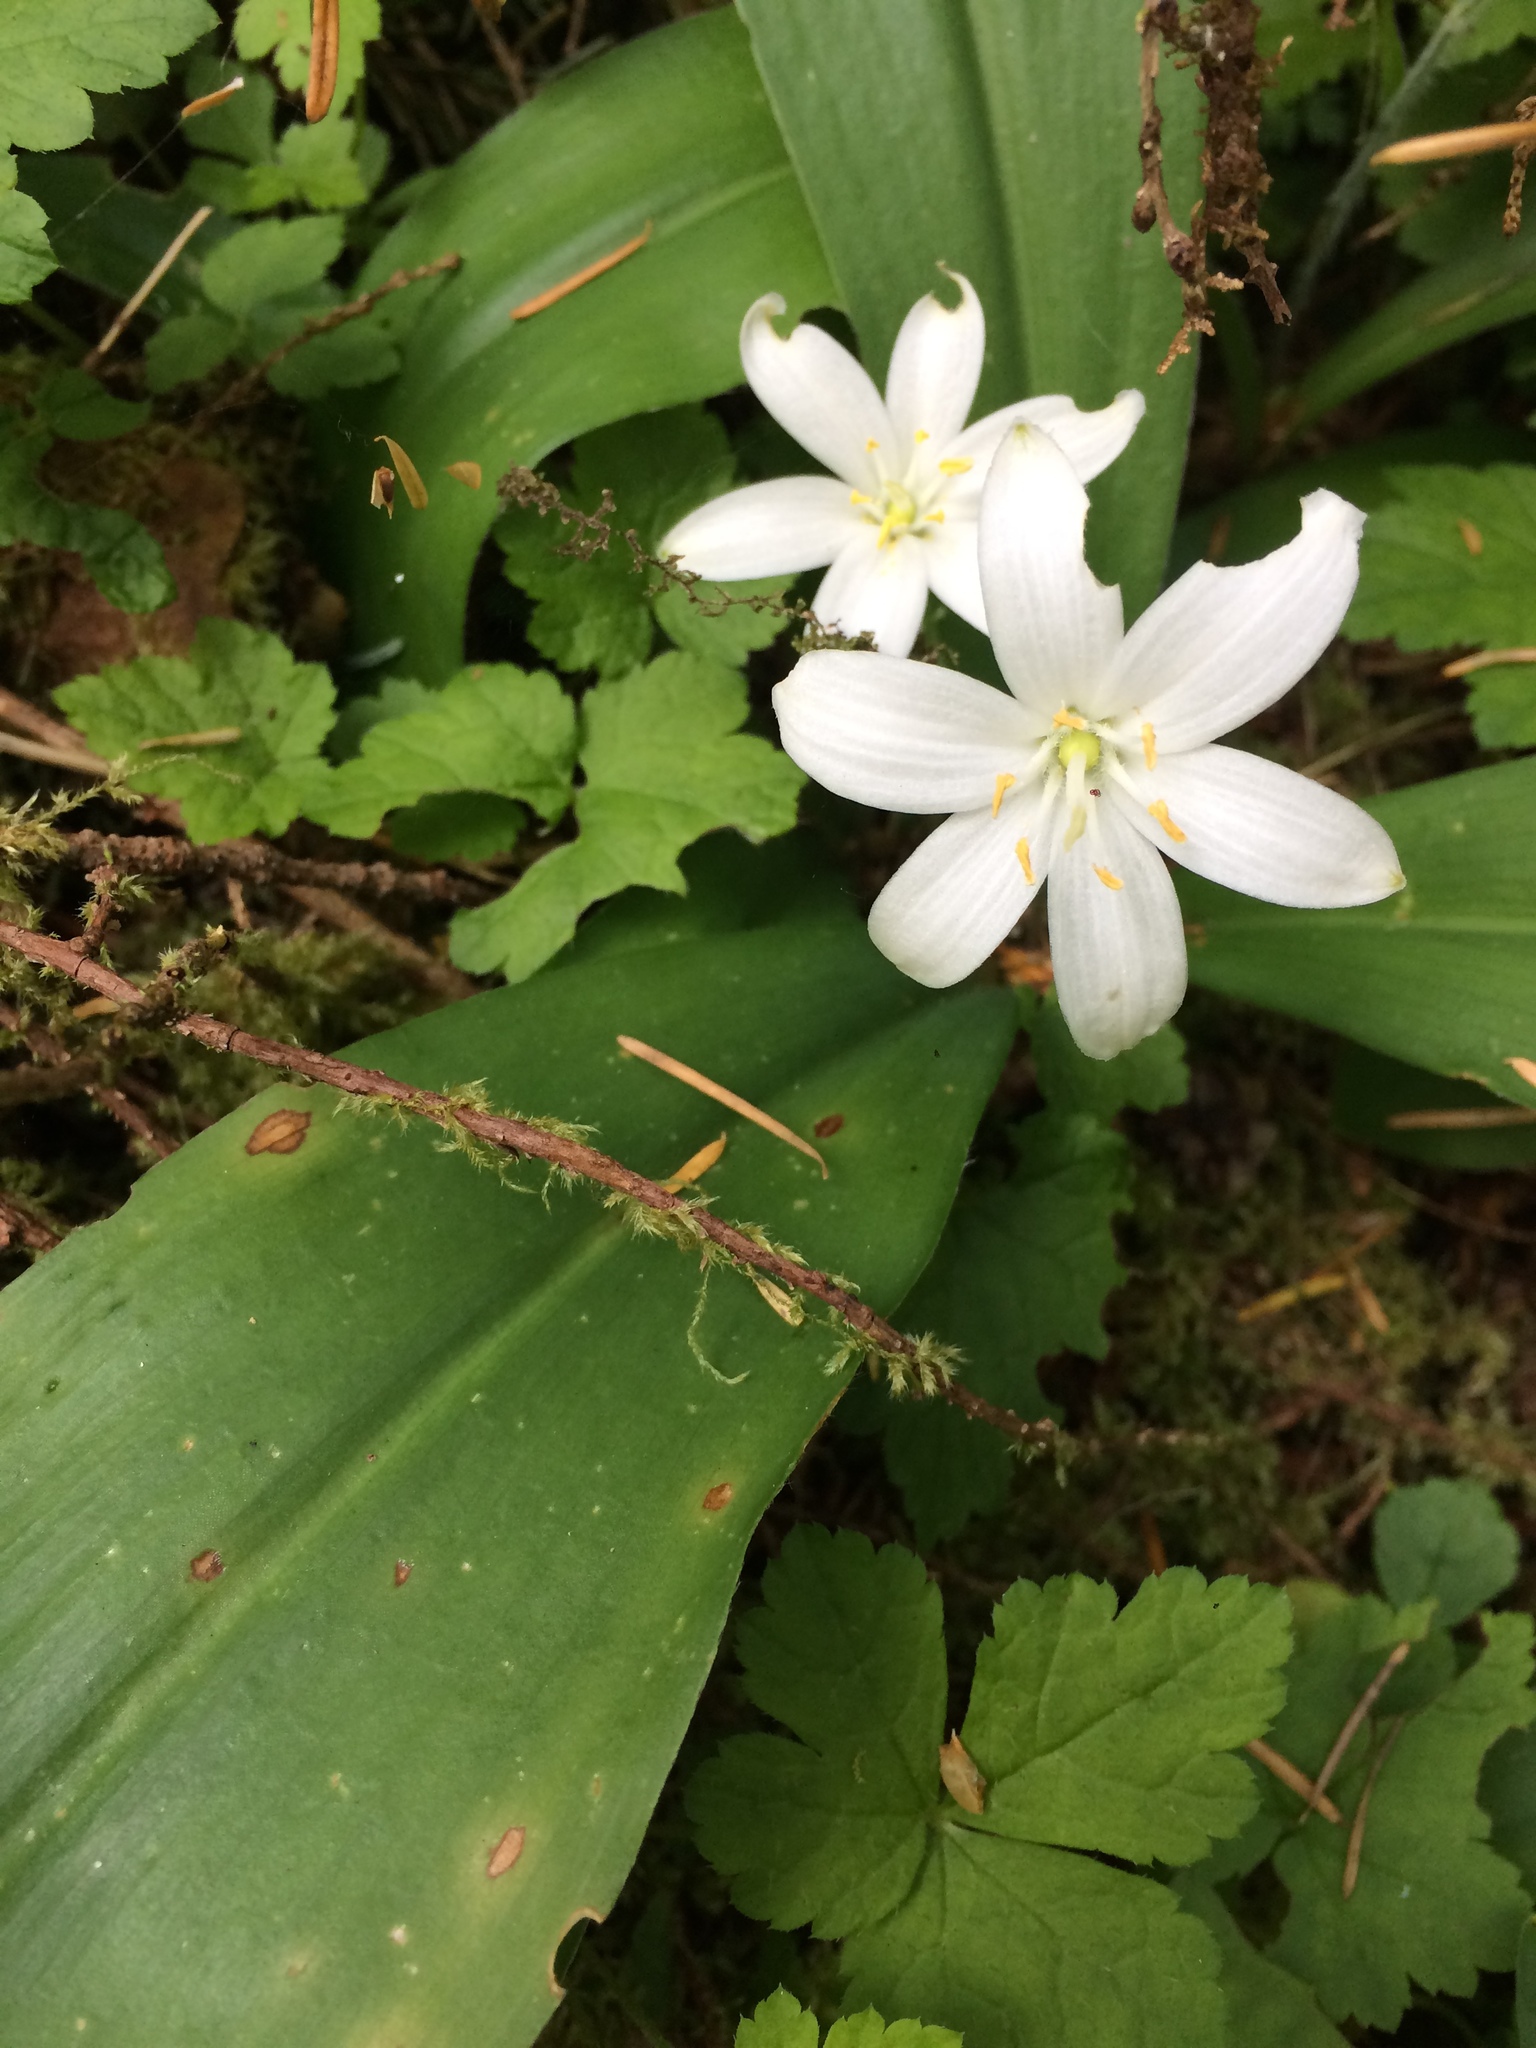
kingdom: Plantae
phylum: Tracheophyta
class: Liliopsida
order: Liliales
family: Liliaceae
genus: Clintonia
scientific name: Clintonia uniflora
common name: Queen's cup
